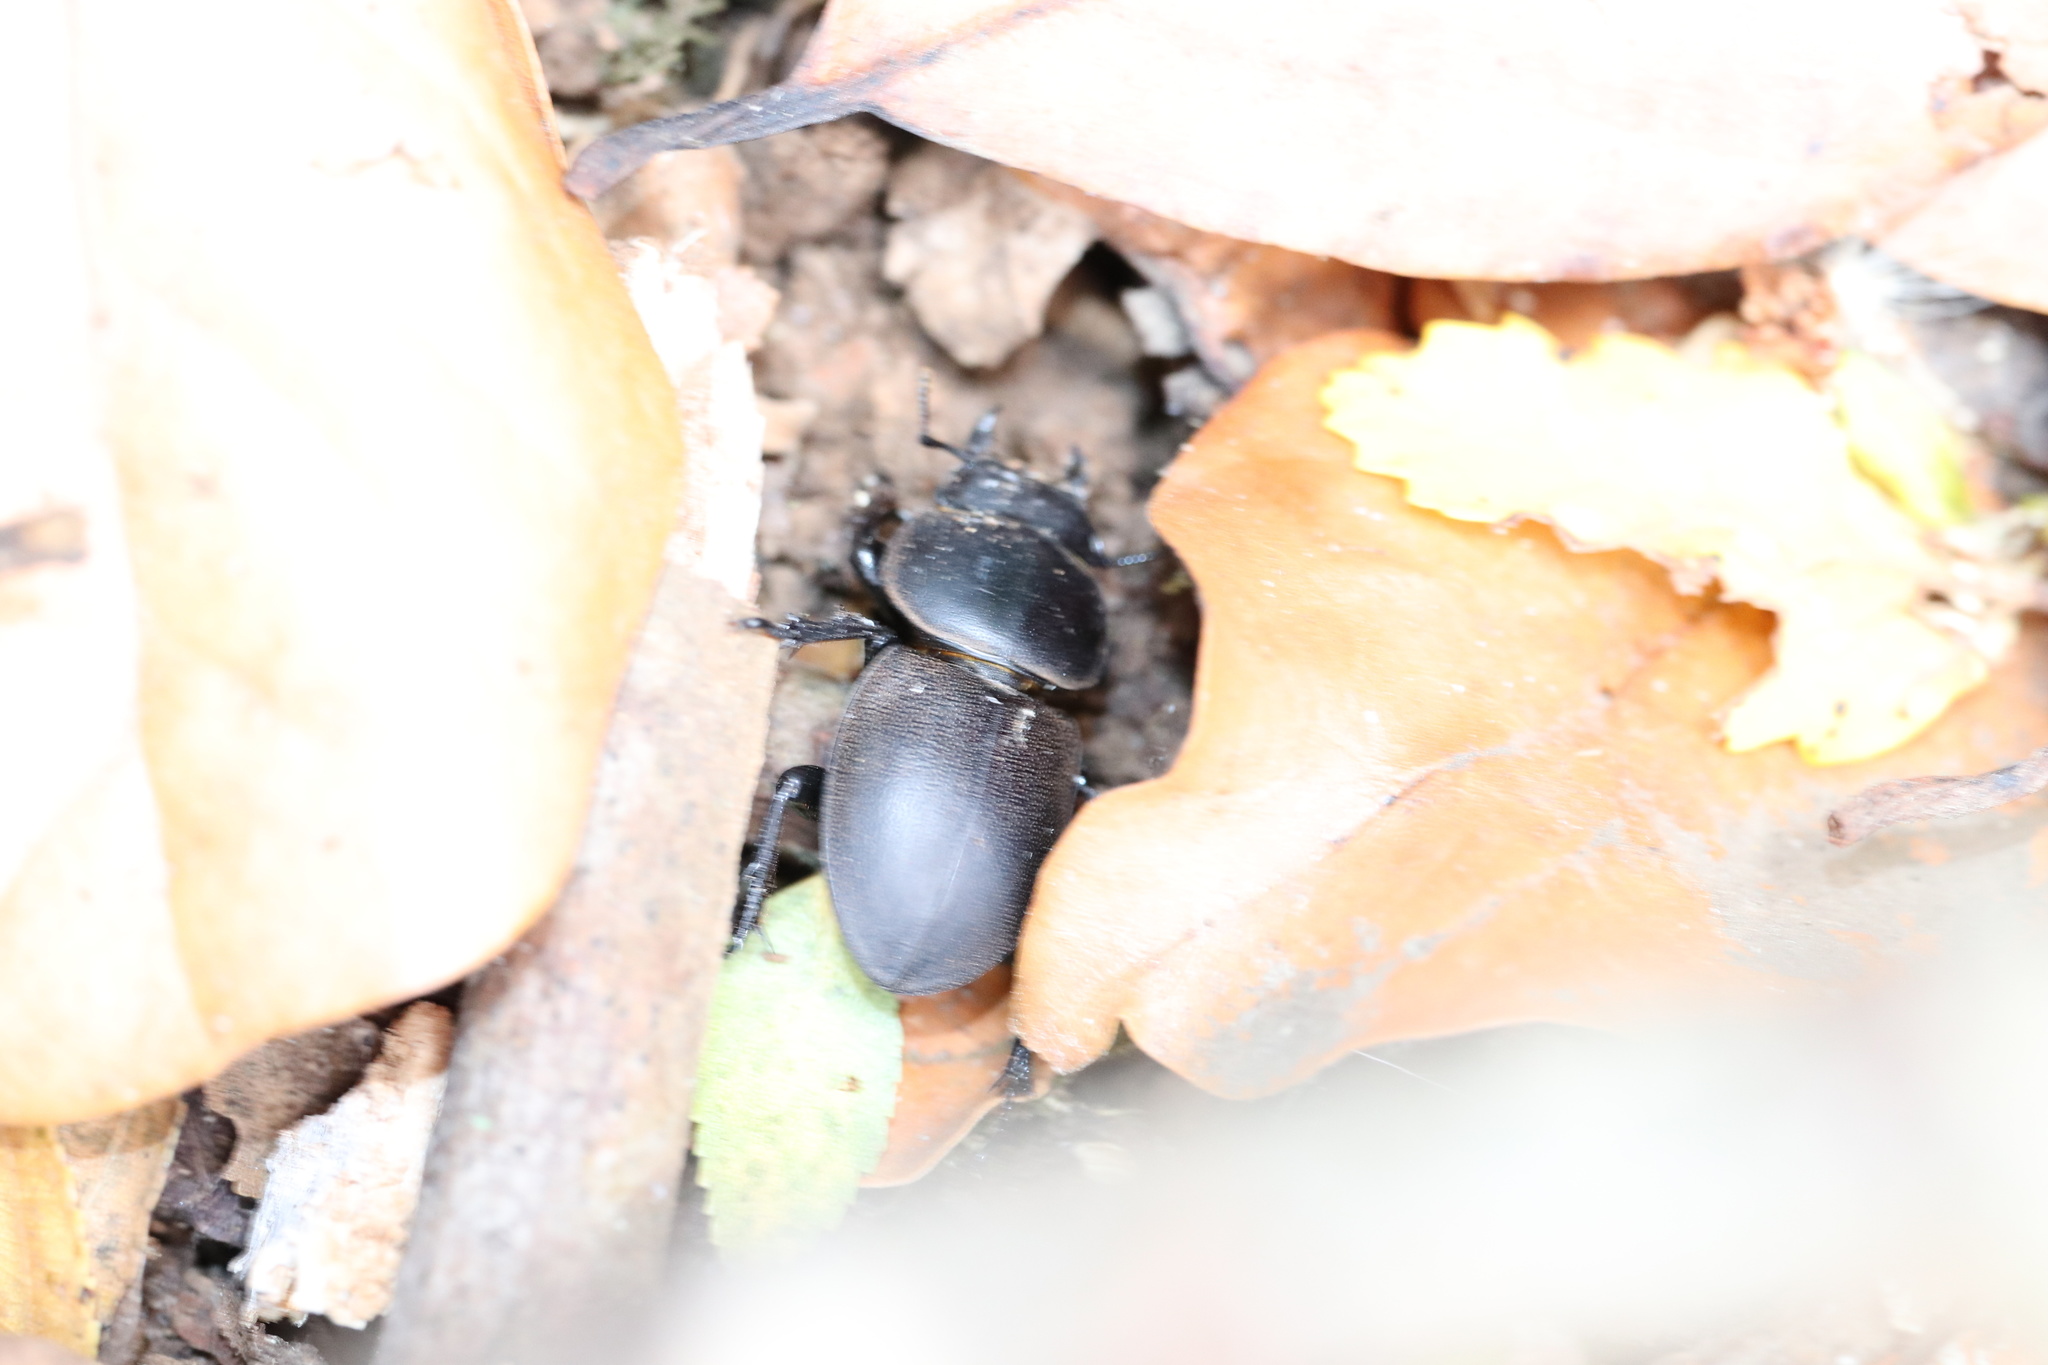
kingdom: Animalia
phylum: Arthropoda
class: Insecta
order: Coleoptera
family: Lucanidae
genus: Apterodorcus
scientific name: Apterodorcus bacchus
